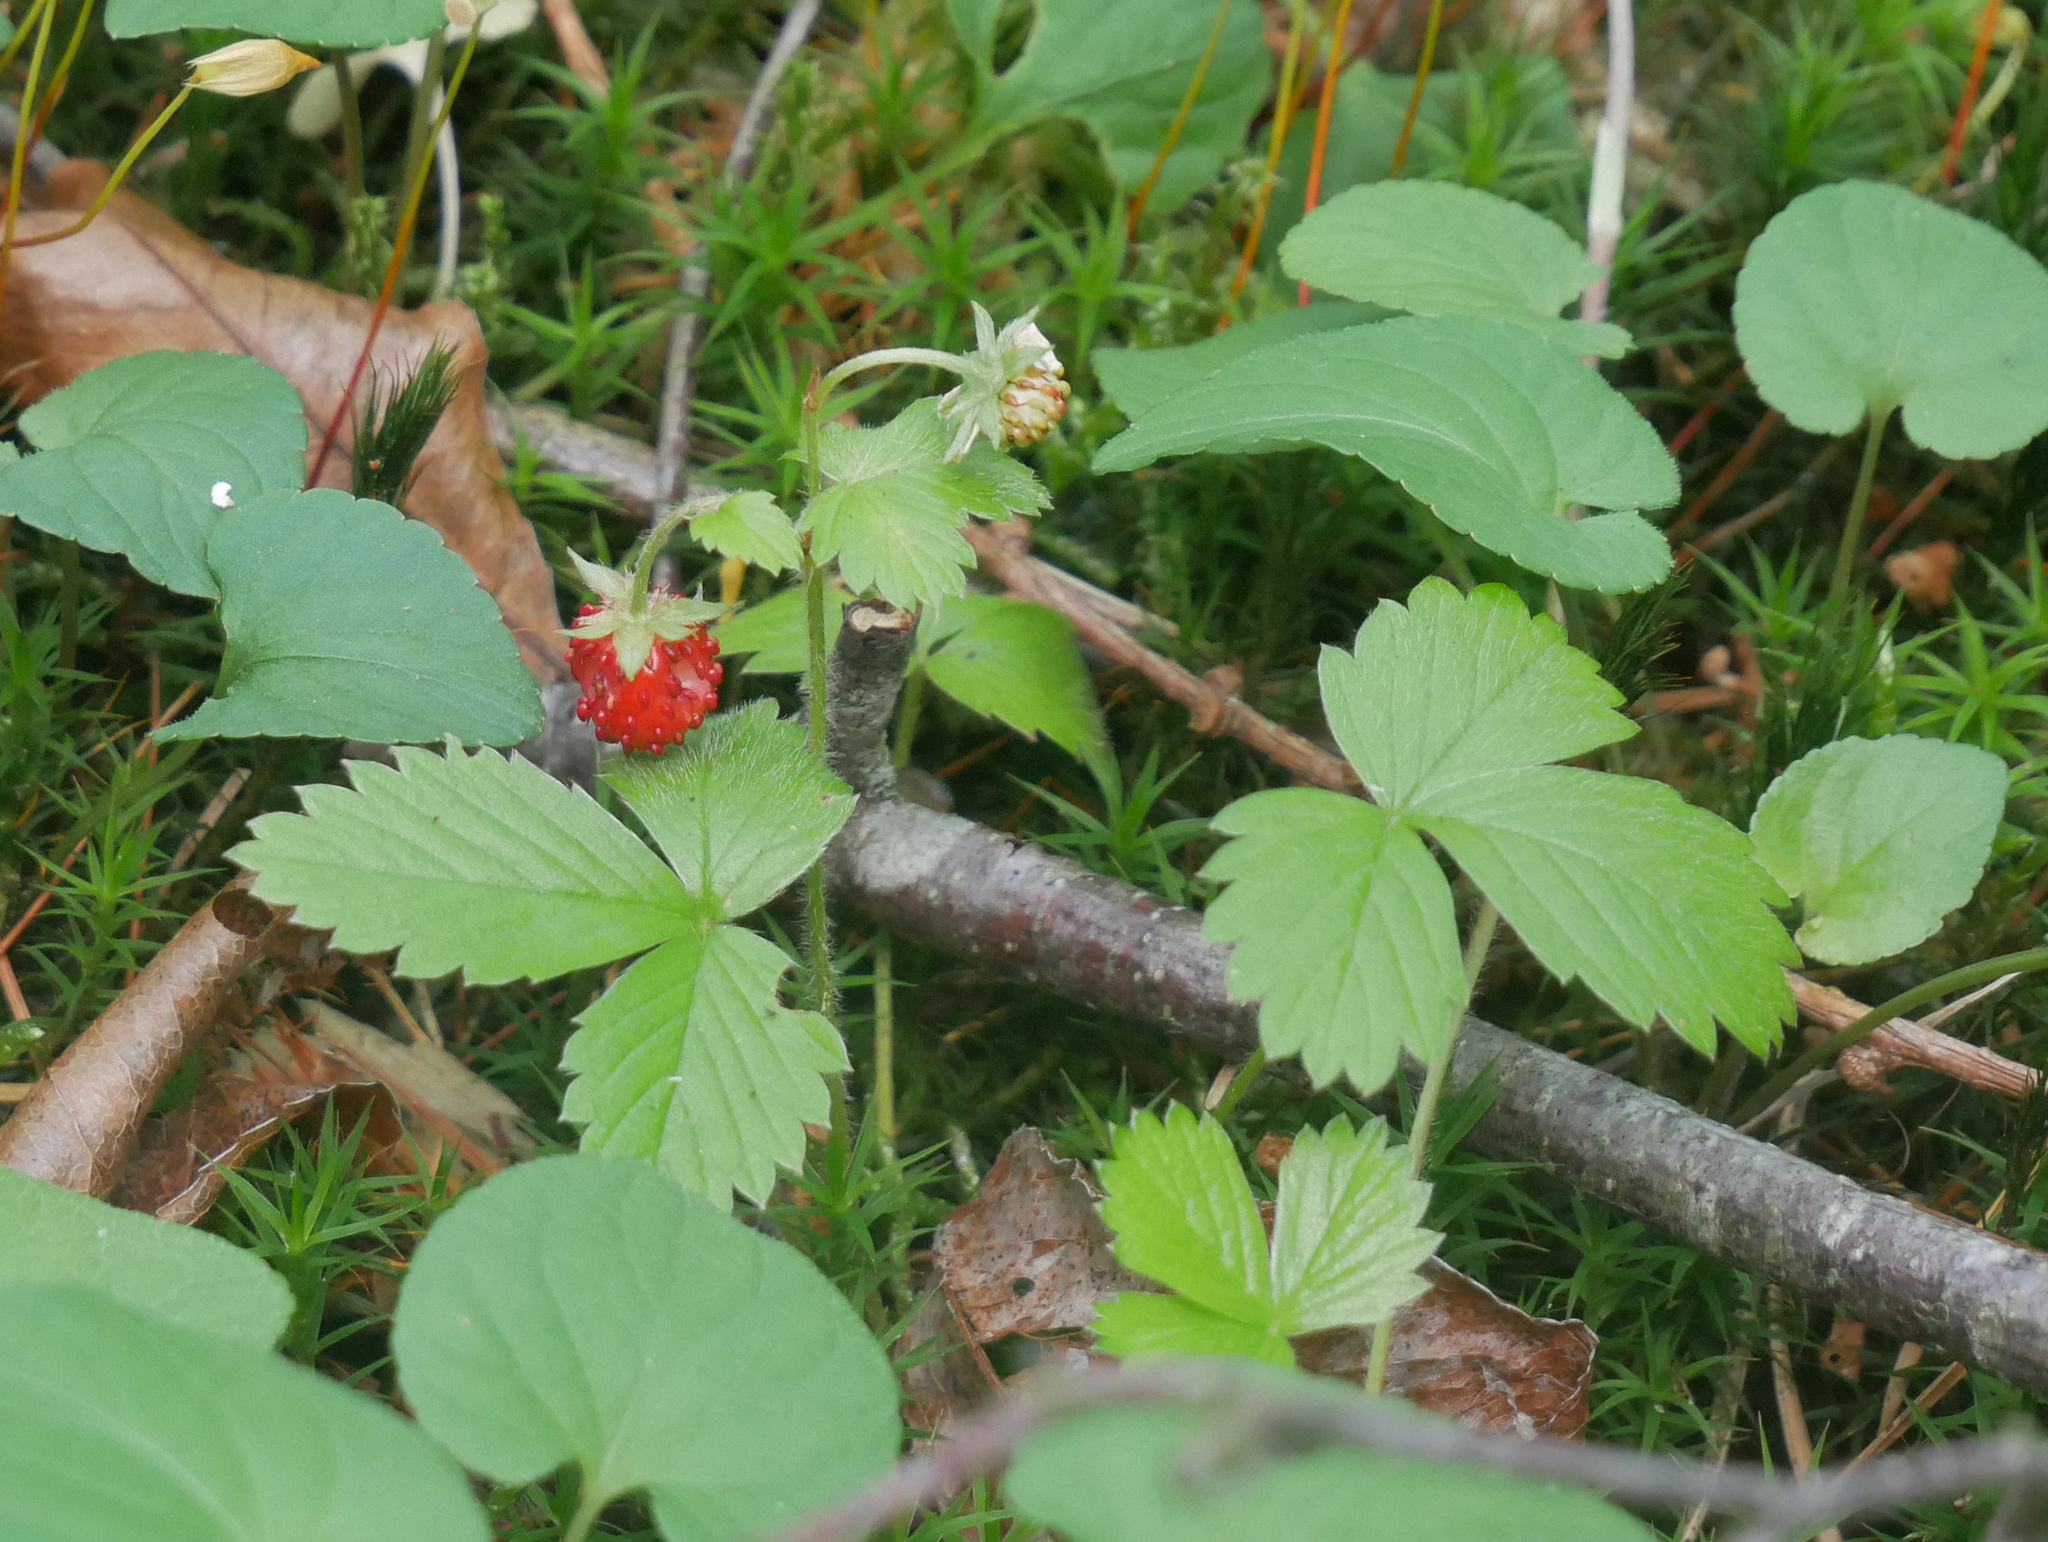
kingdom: Plantae
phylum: Tracheophyta
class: Magnoliopsida
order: Rosales
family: Rosaceae
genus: Fragaria
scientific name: Fragaria vesca
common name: Wild strawberry
